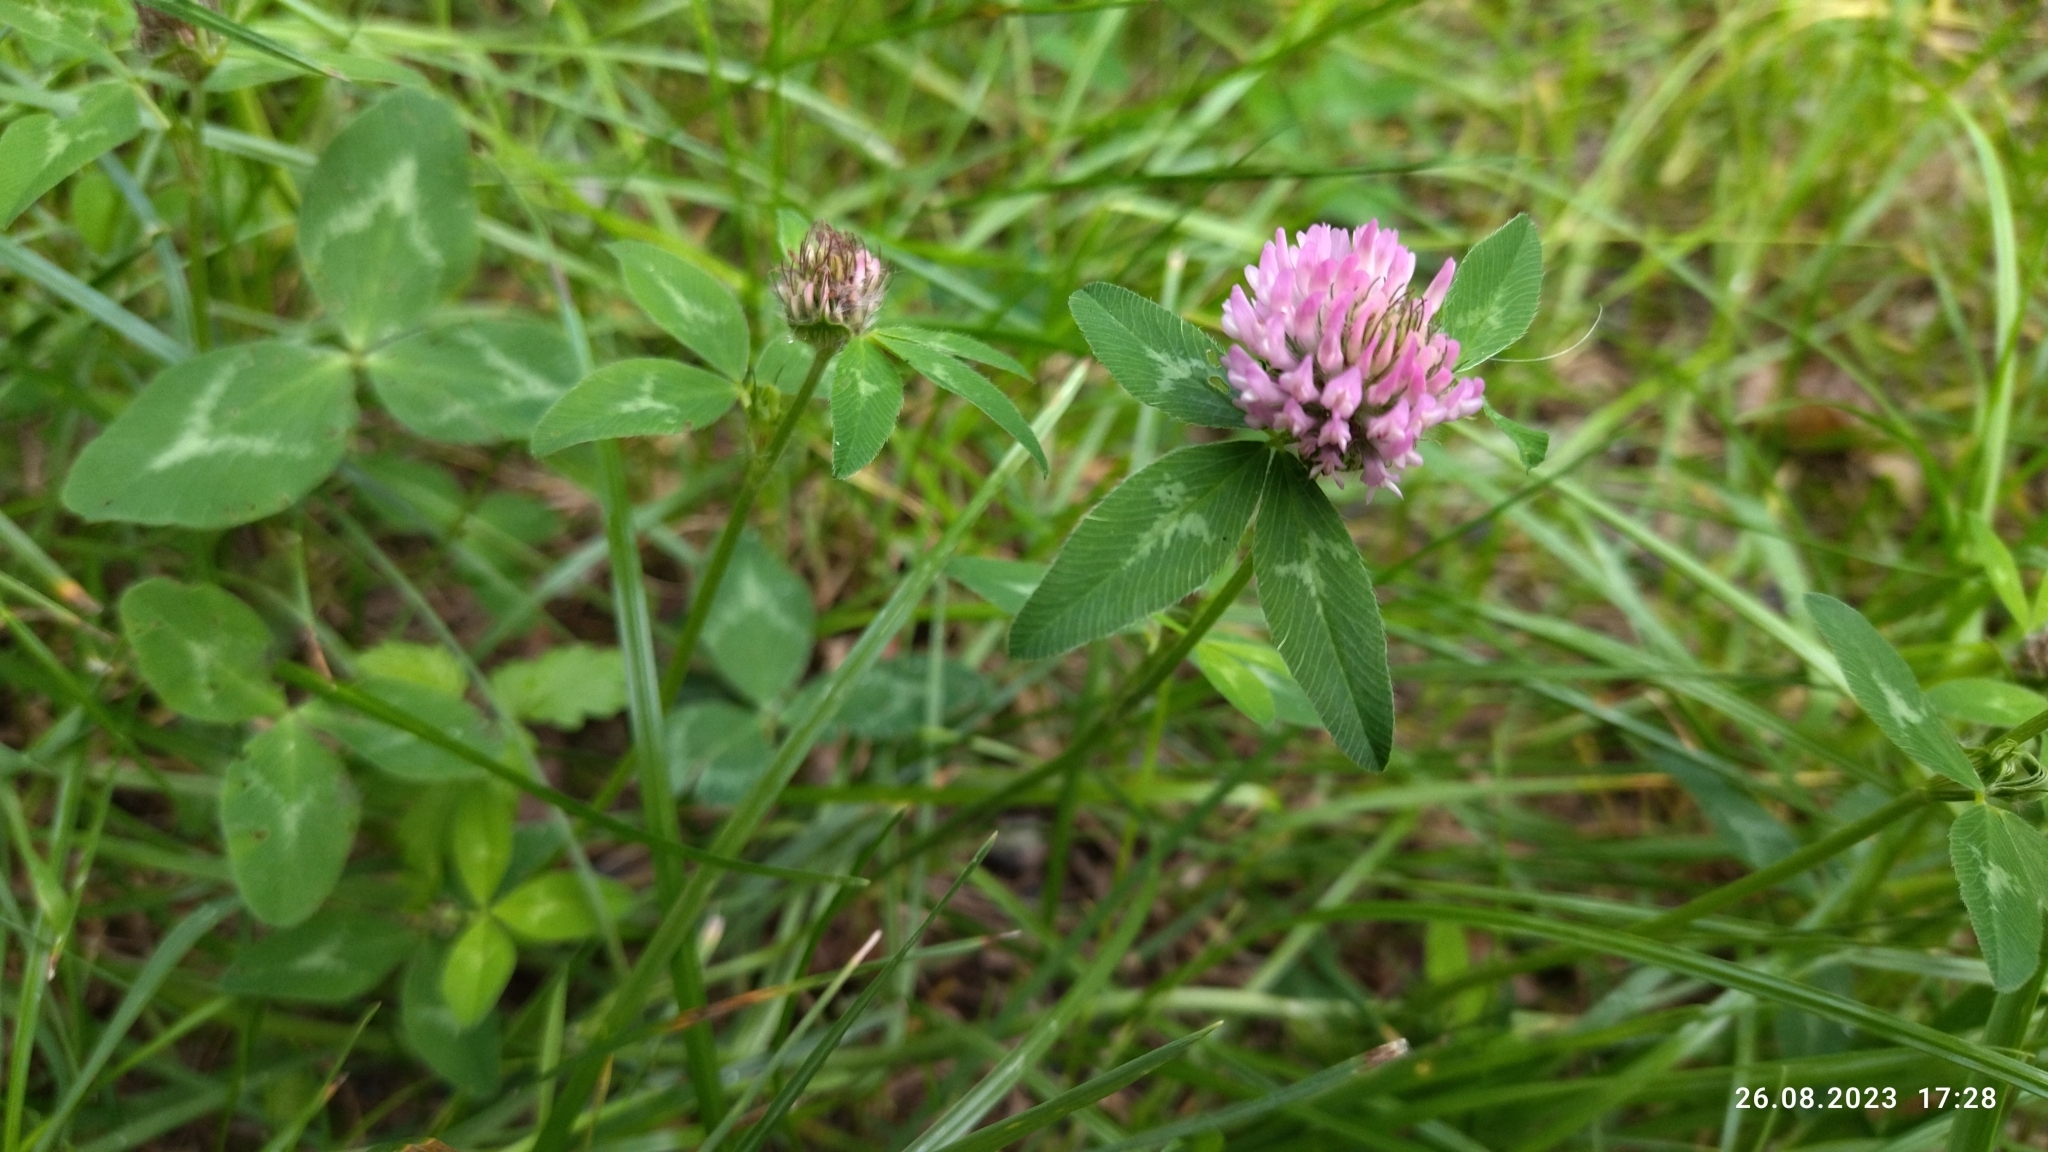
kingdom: Plantae
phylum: Tracheophyta
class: Magnoliopsida
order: Fabales
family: Fabaceae
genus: Trifolium
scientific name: Trifolium pratense
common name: Red clover
